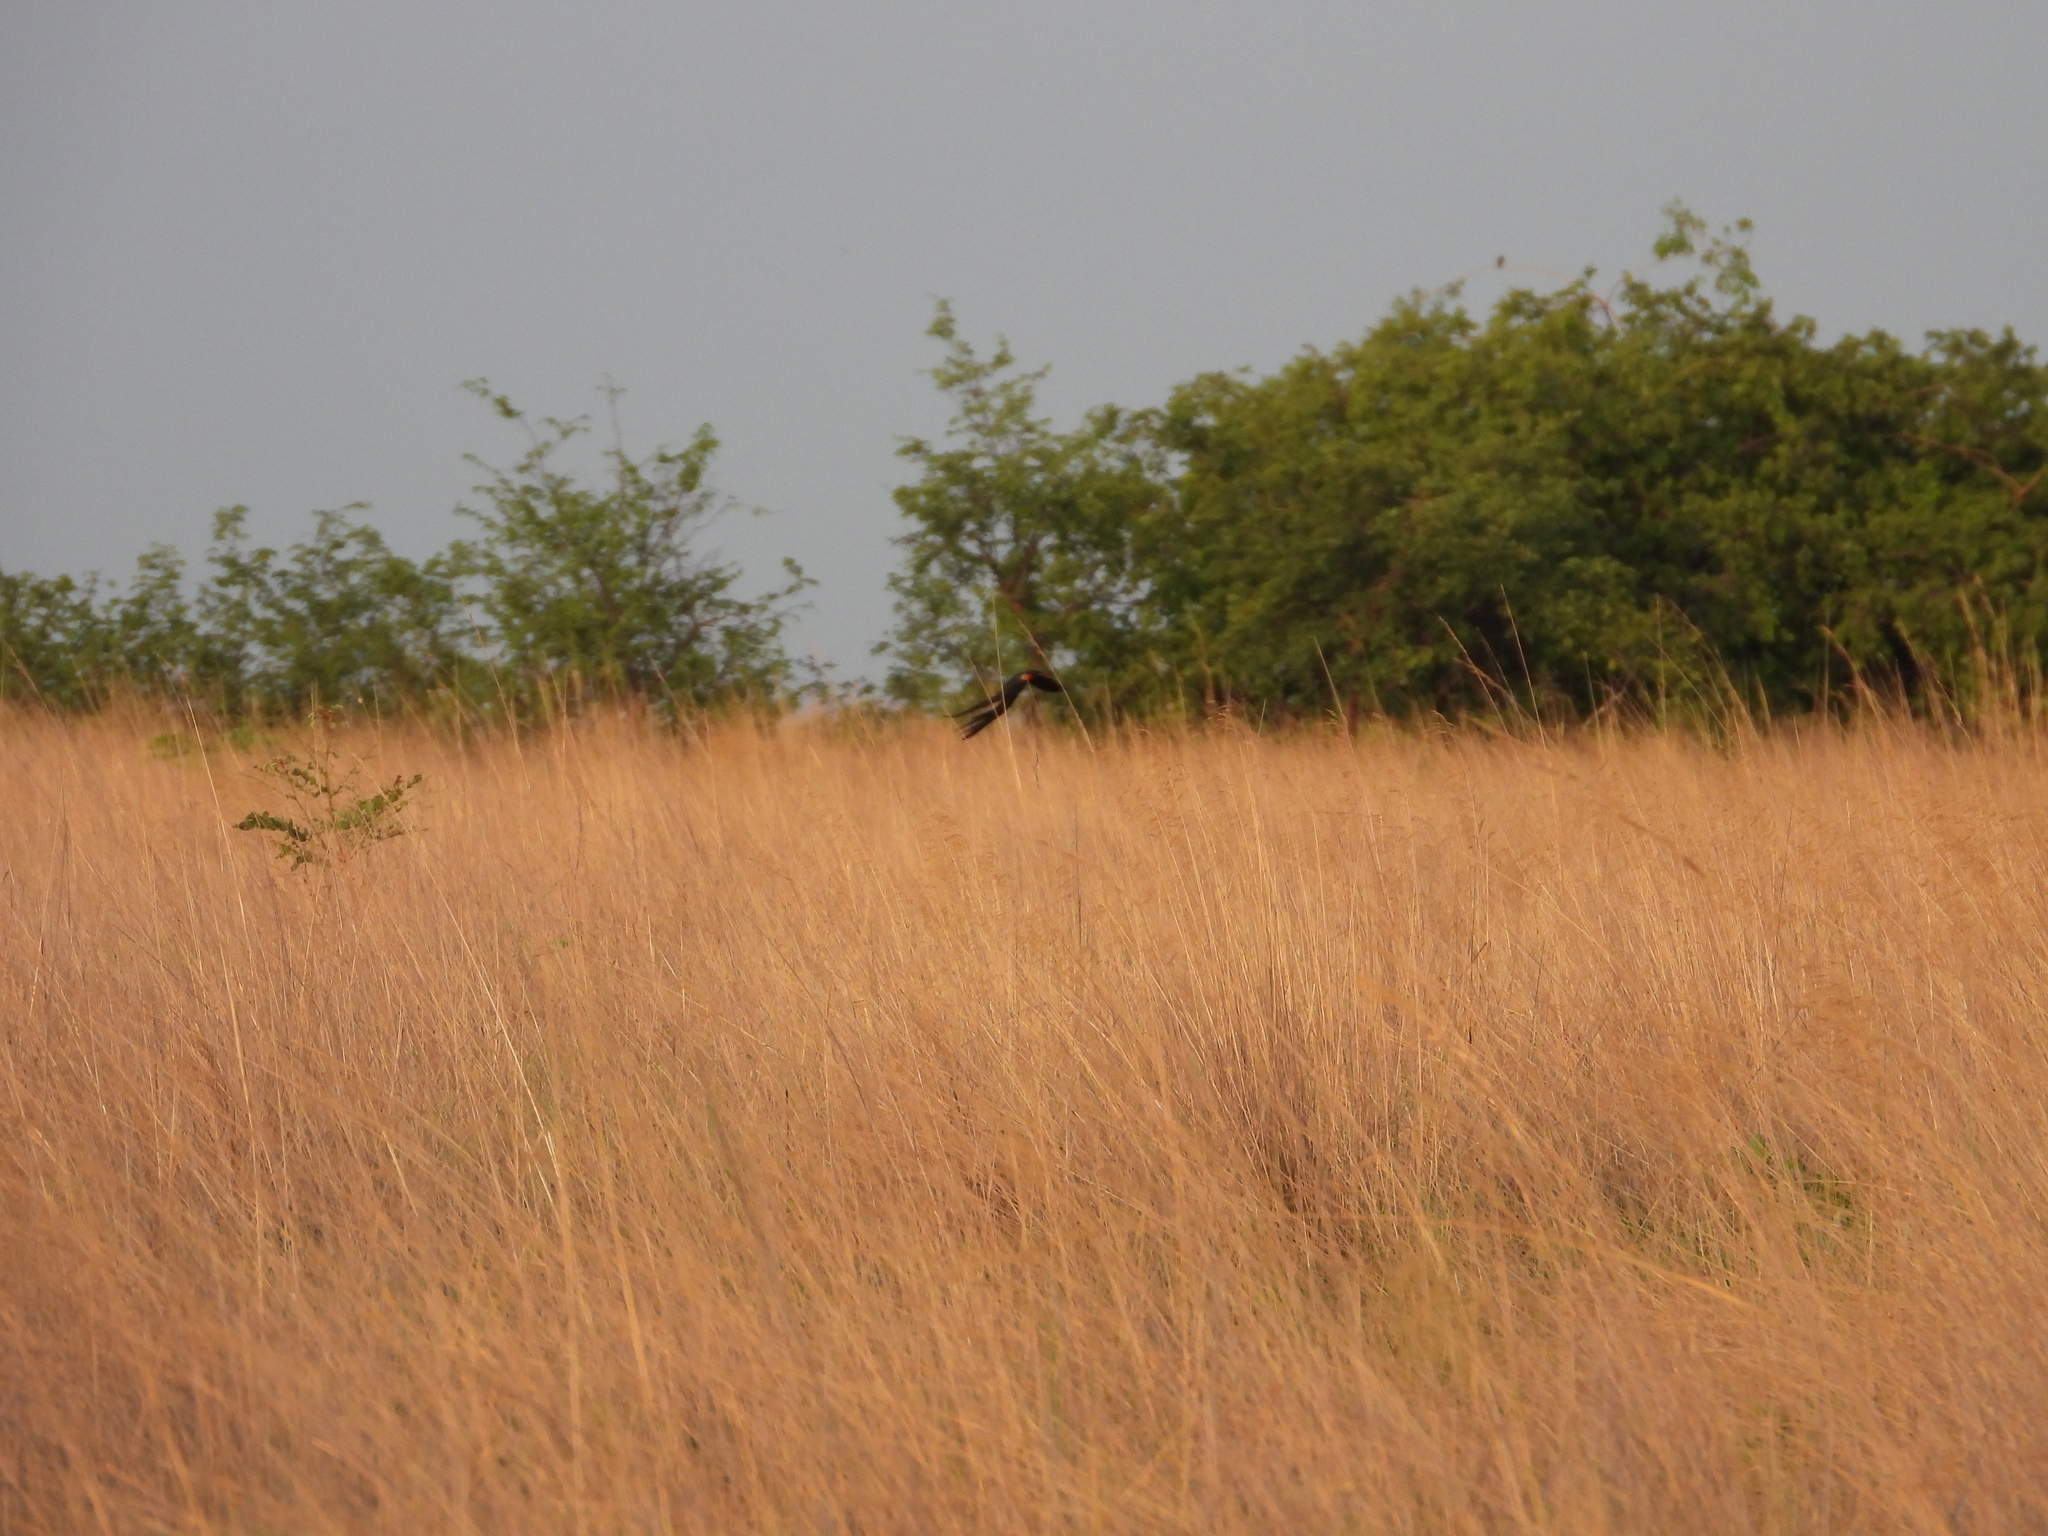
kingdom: Animalia
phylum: Chordata
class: Aves
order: Passeriformes
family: Ploceidae
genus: Euplectes
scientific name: Euplectes ardens
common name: Red-collared widowbird
